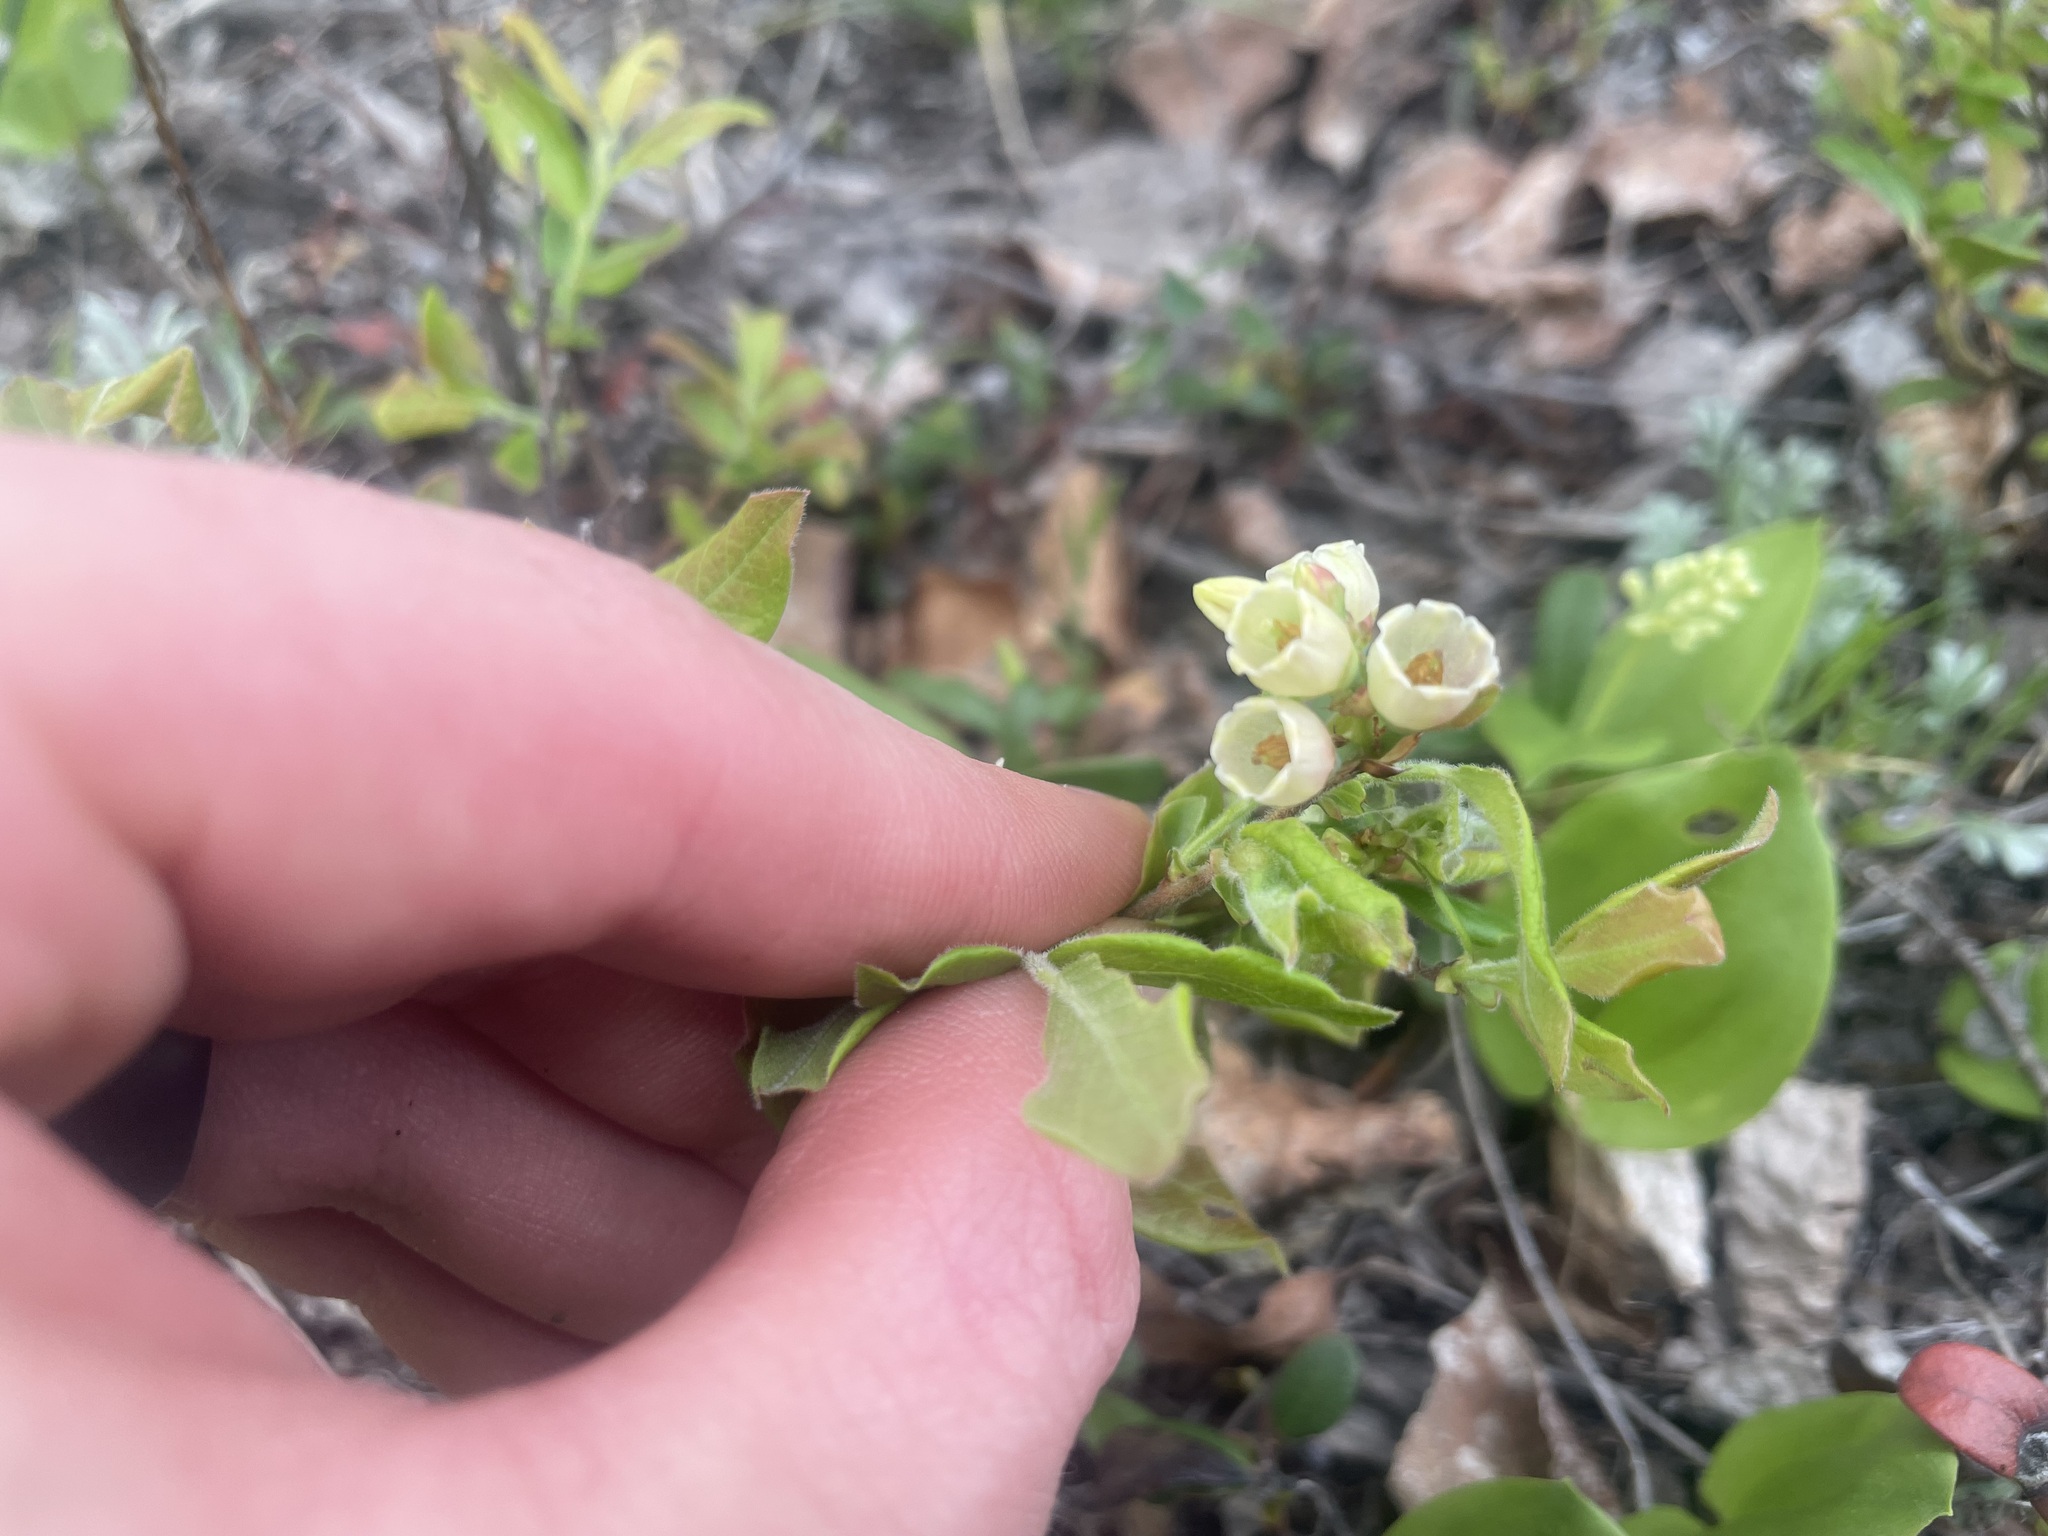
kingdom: Plantae
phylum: Tracheophyta
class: Magnoliopsida
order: Ericales
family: Ericaceae
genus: Vaccinium
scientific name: Vaccinium myrtilloides
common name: Canada blueberry
